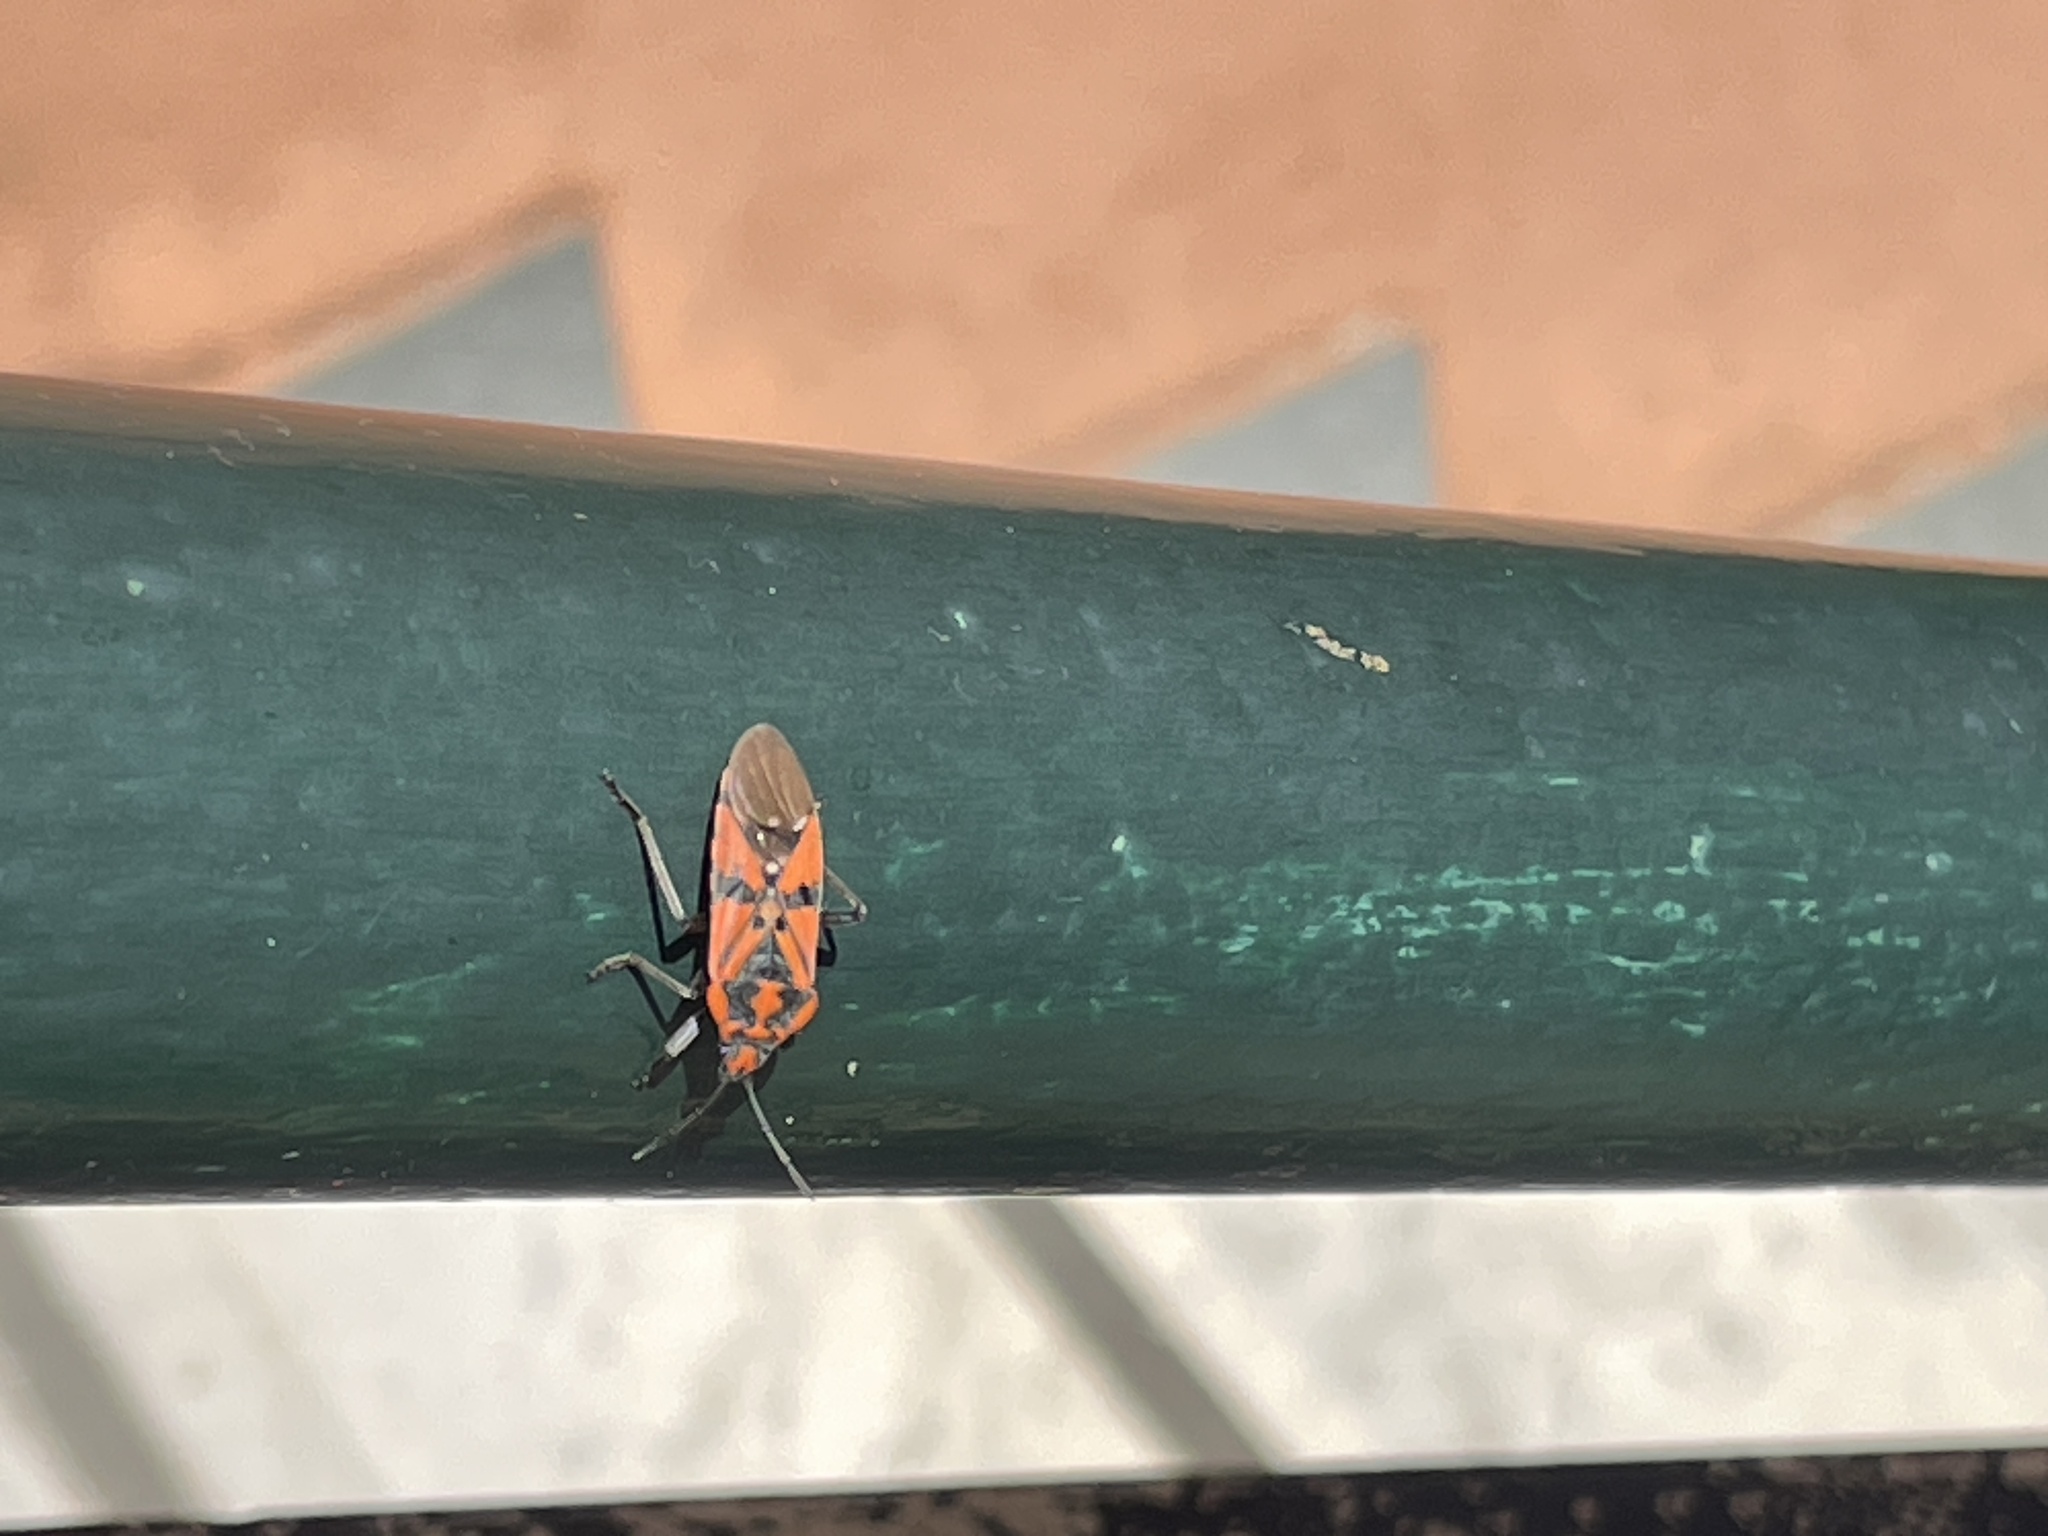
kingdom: Animalia
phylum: Arthropoda
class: Insecta
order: Hemiptera
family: Lygaeidae
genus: Spilostethus
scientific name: Spilostethus pandurus
